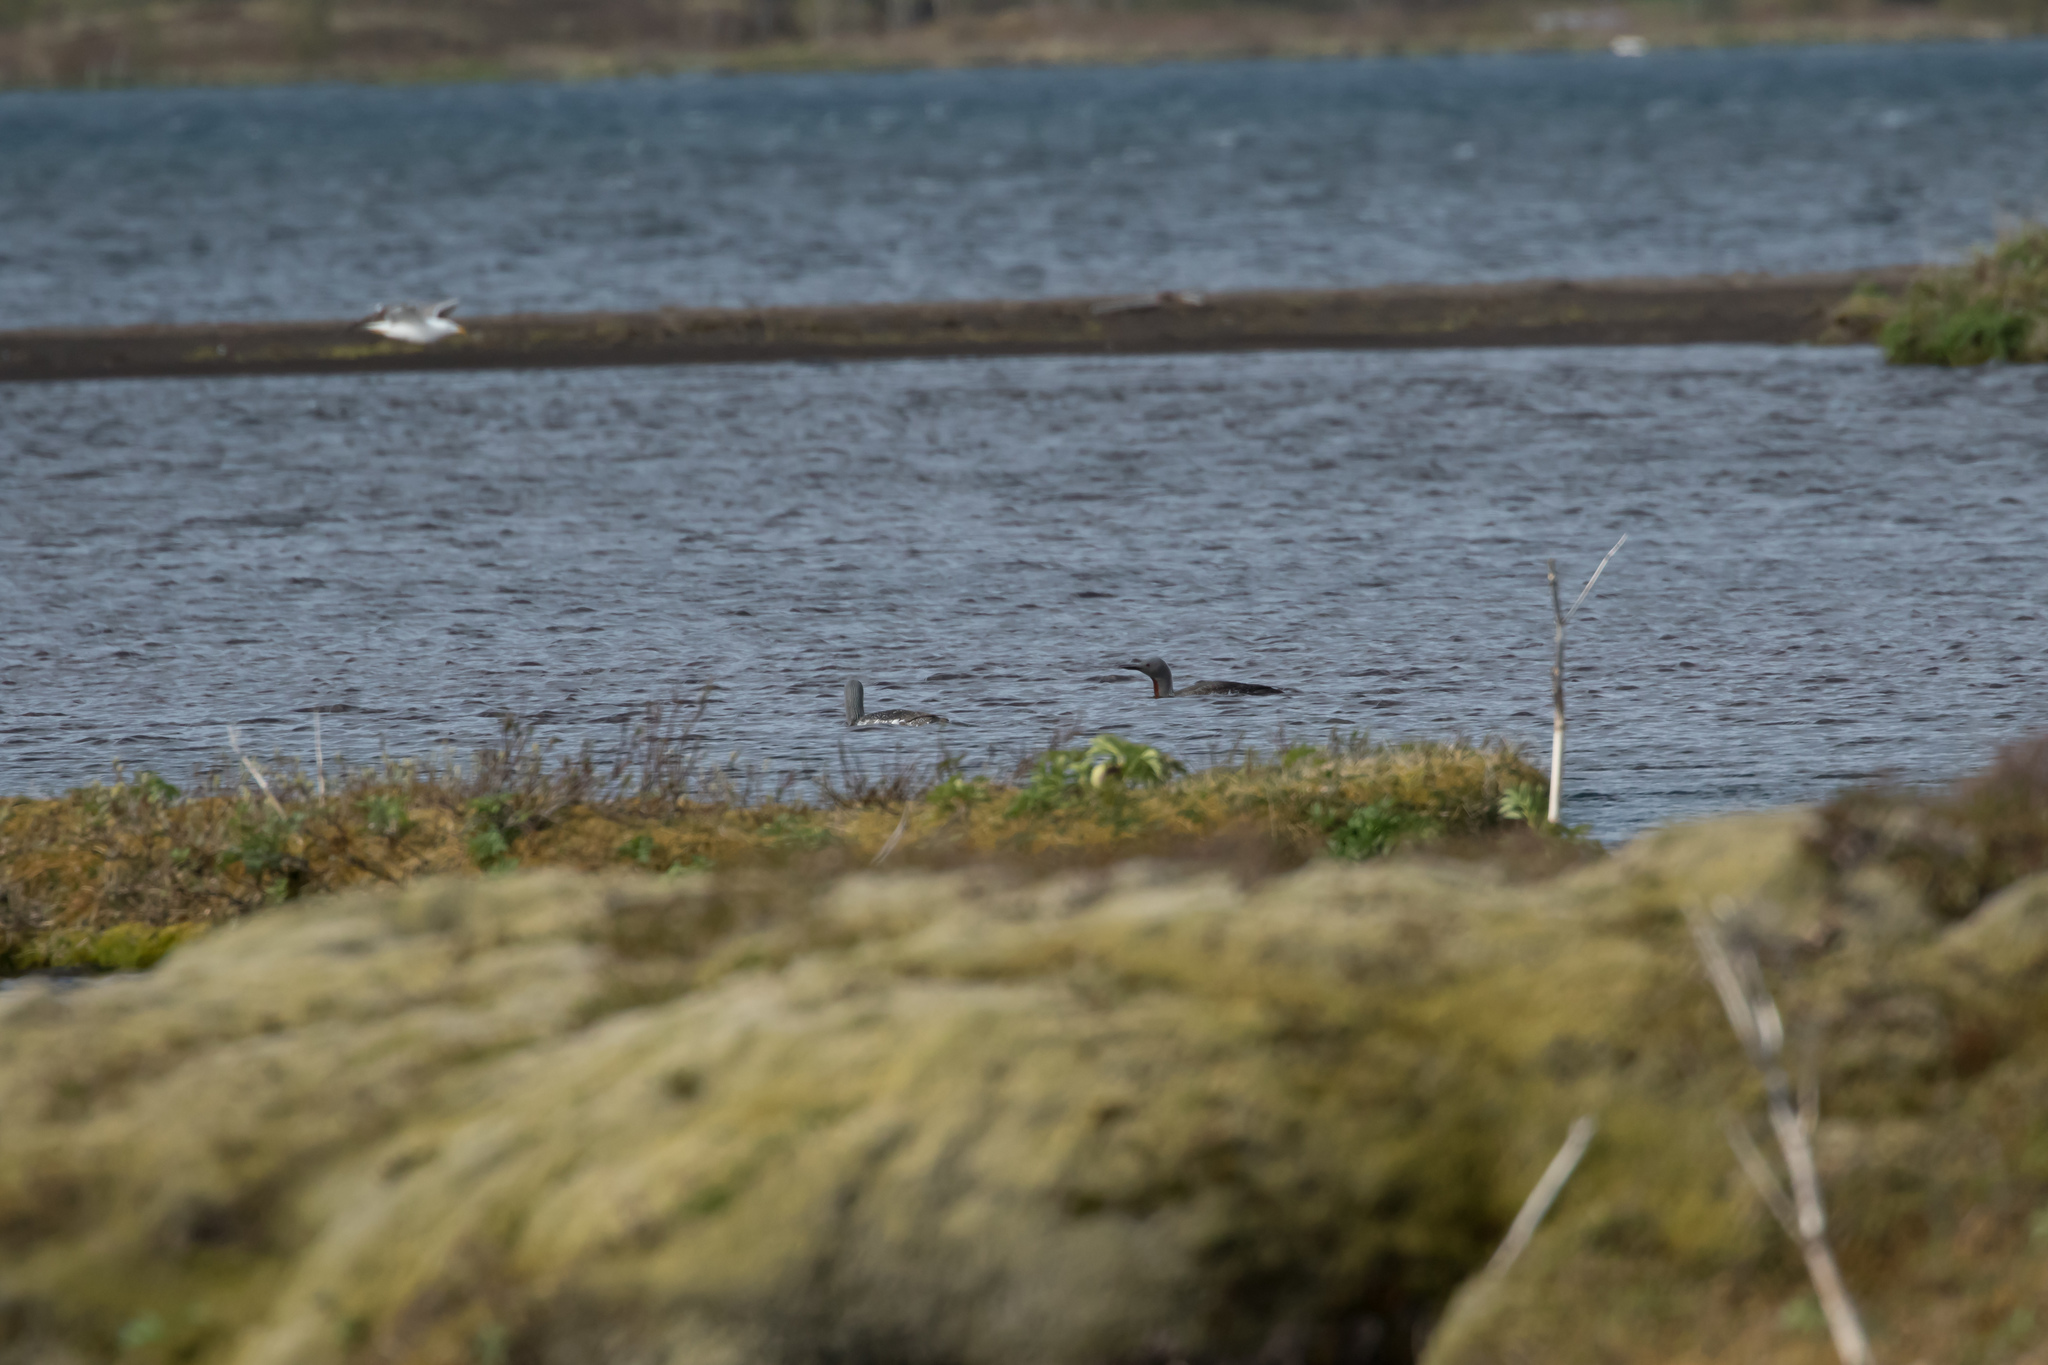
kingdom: Animalia
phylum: Chordata
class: Aves
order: Gaviiformes
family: Gaviidae
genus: Gavia
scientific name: Gavia stellata
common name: Red-throated loon
